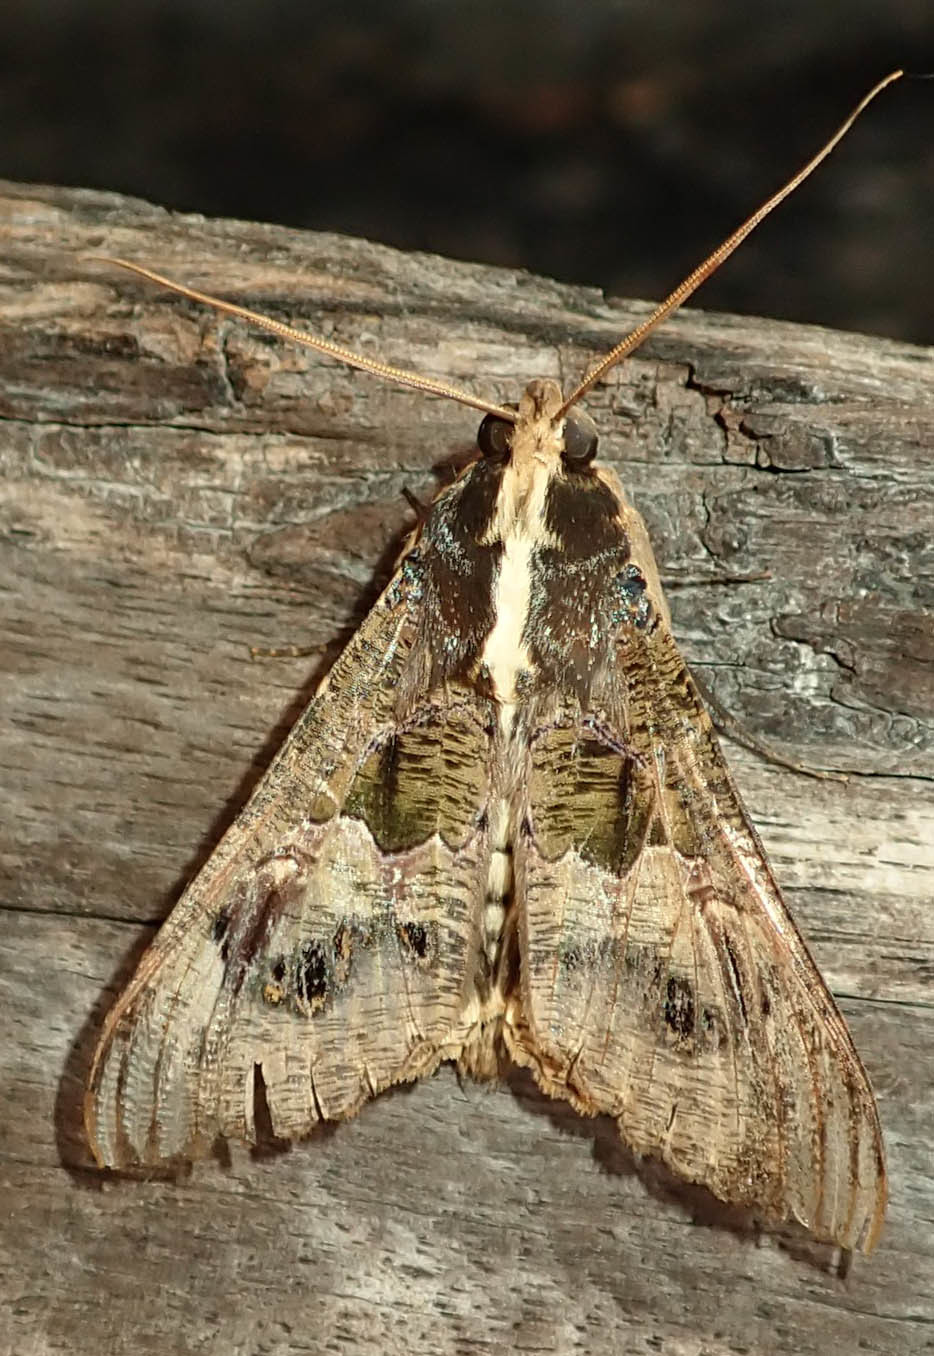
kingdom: Animalia
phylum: Arthropoda
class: Insecta
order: Lepidoptera
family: Erebidae
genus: Sphingomorpha
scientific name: Sphingomorpha chlorea
